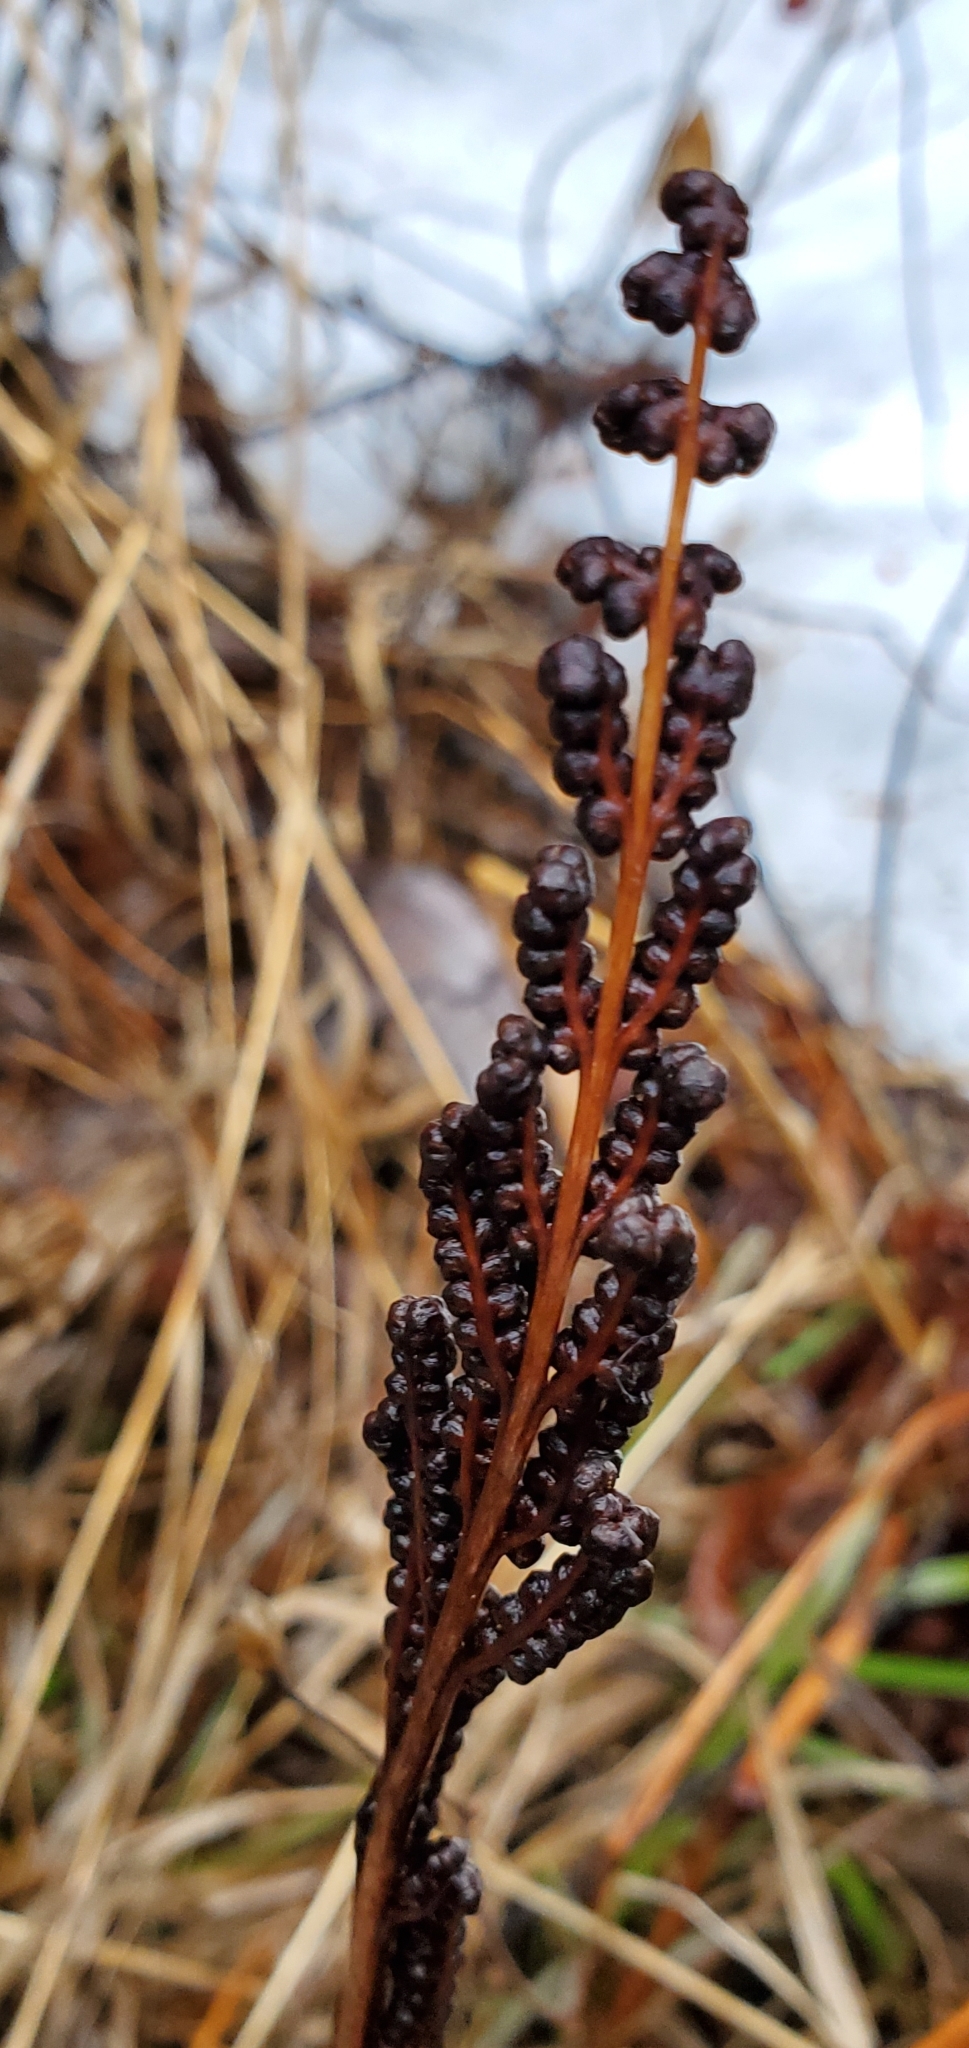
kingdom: Plantae
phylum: Tracheophyta
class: Polypodiopsida
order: Polypodiales
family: Onocleaceae
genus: Onoclea
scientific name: Onoclea sensibilis
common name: Sensitive fern
